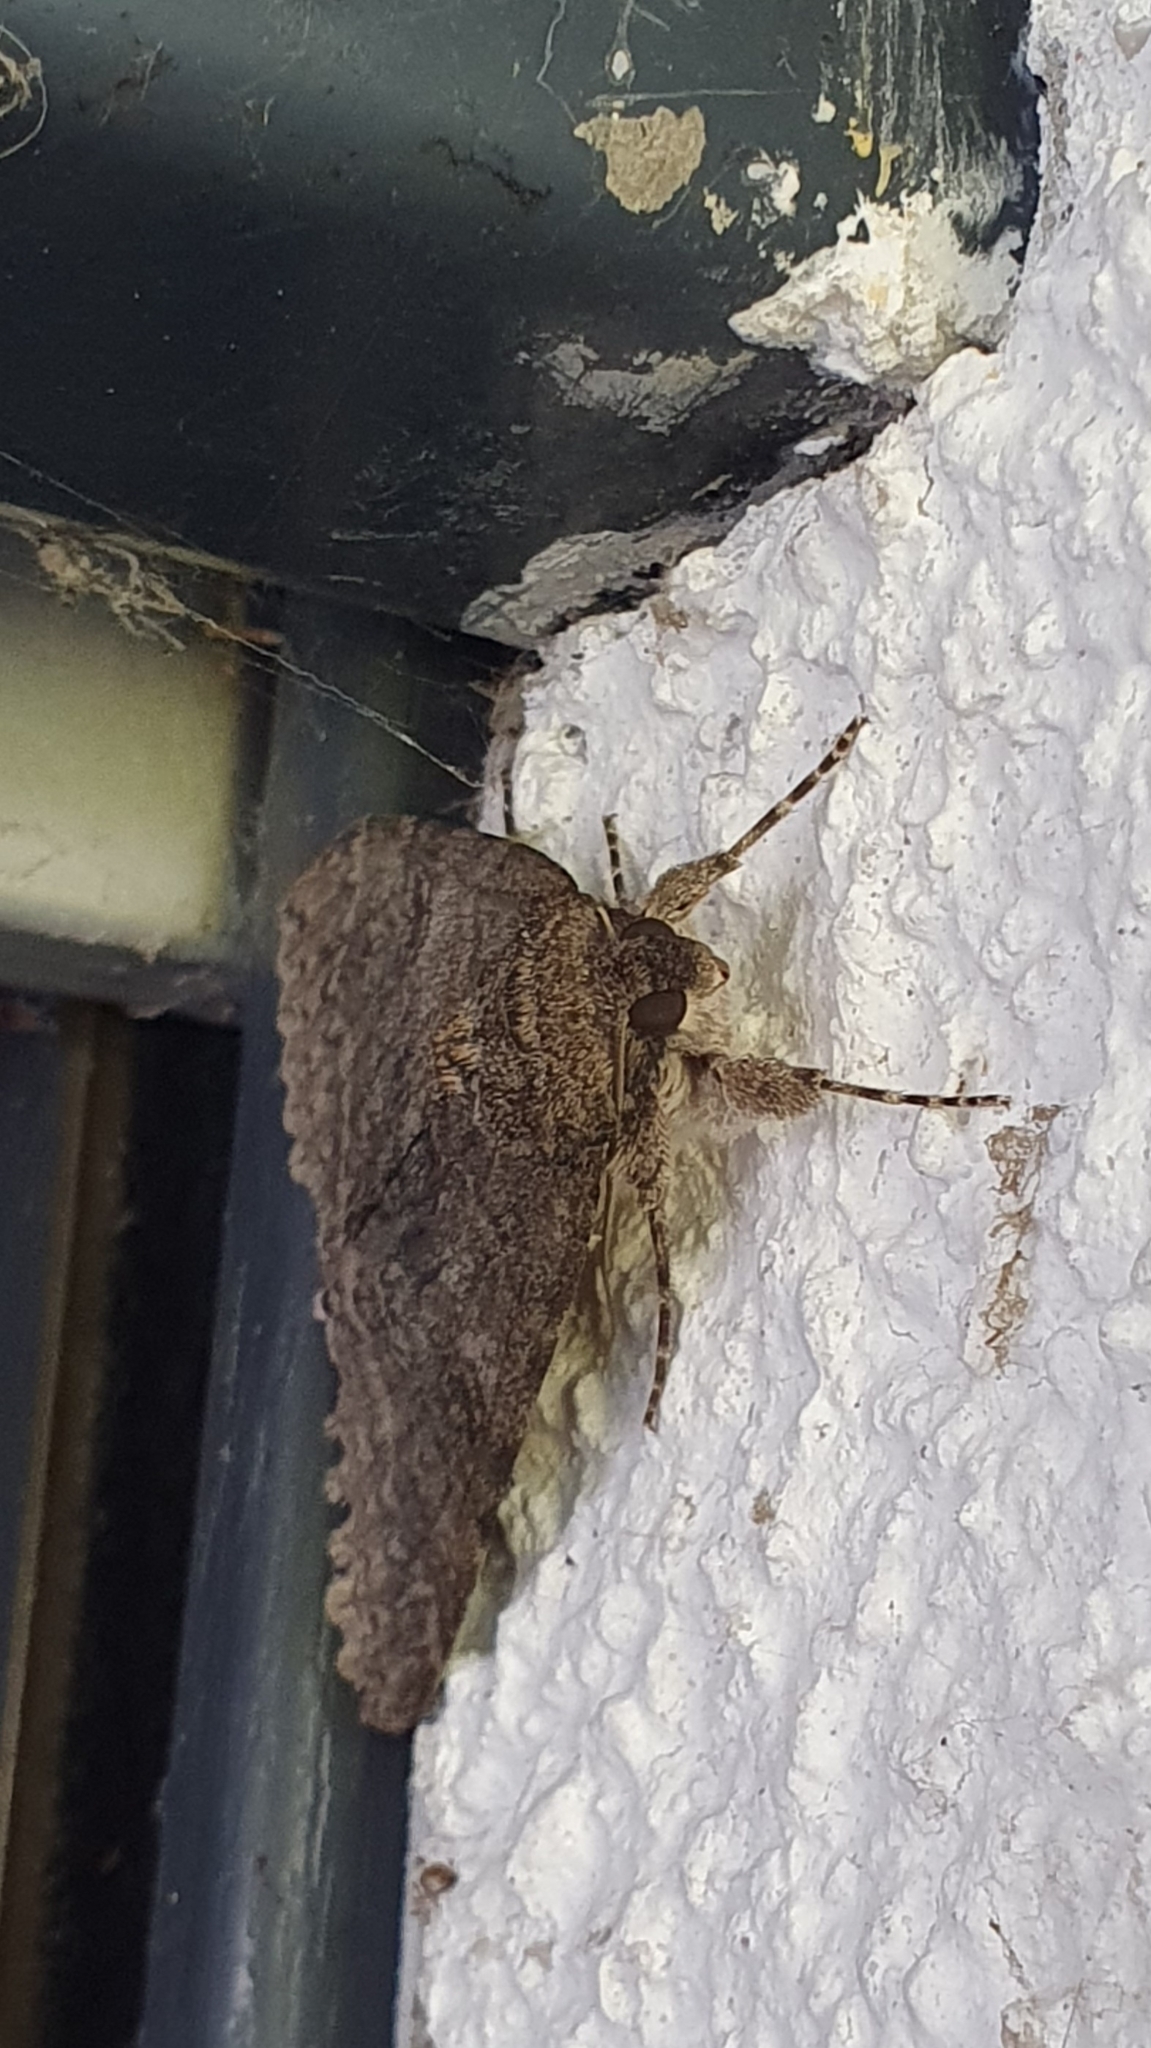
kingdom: Animalia
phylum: Arthropoda
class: Insecta
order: Lepidoptera
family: Erebidae
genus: Catocala
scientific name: Catocala nupta
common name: Red underwing
